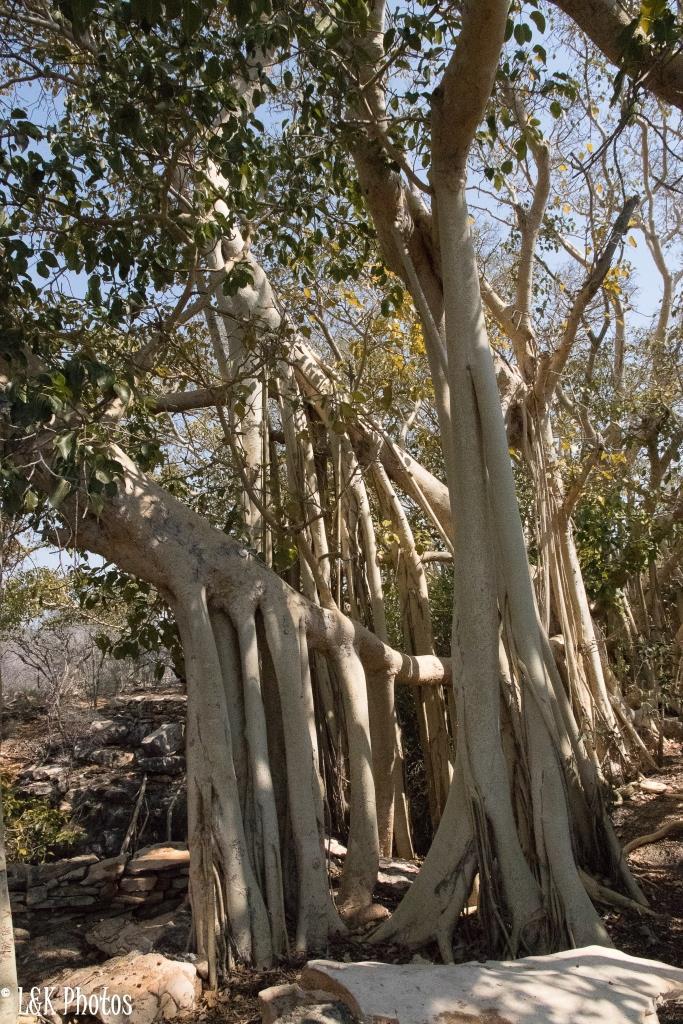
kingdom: Plantae
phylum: Tracheophyta
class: Magnoliopsida
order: Rosales
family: Moraceae
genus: Ficus
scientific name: Ficus grevei
